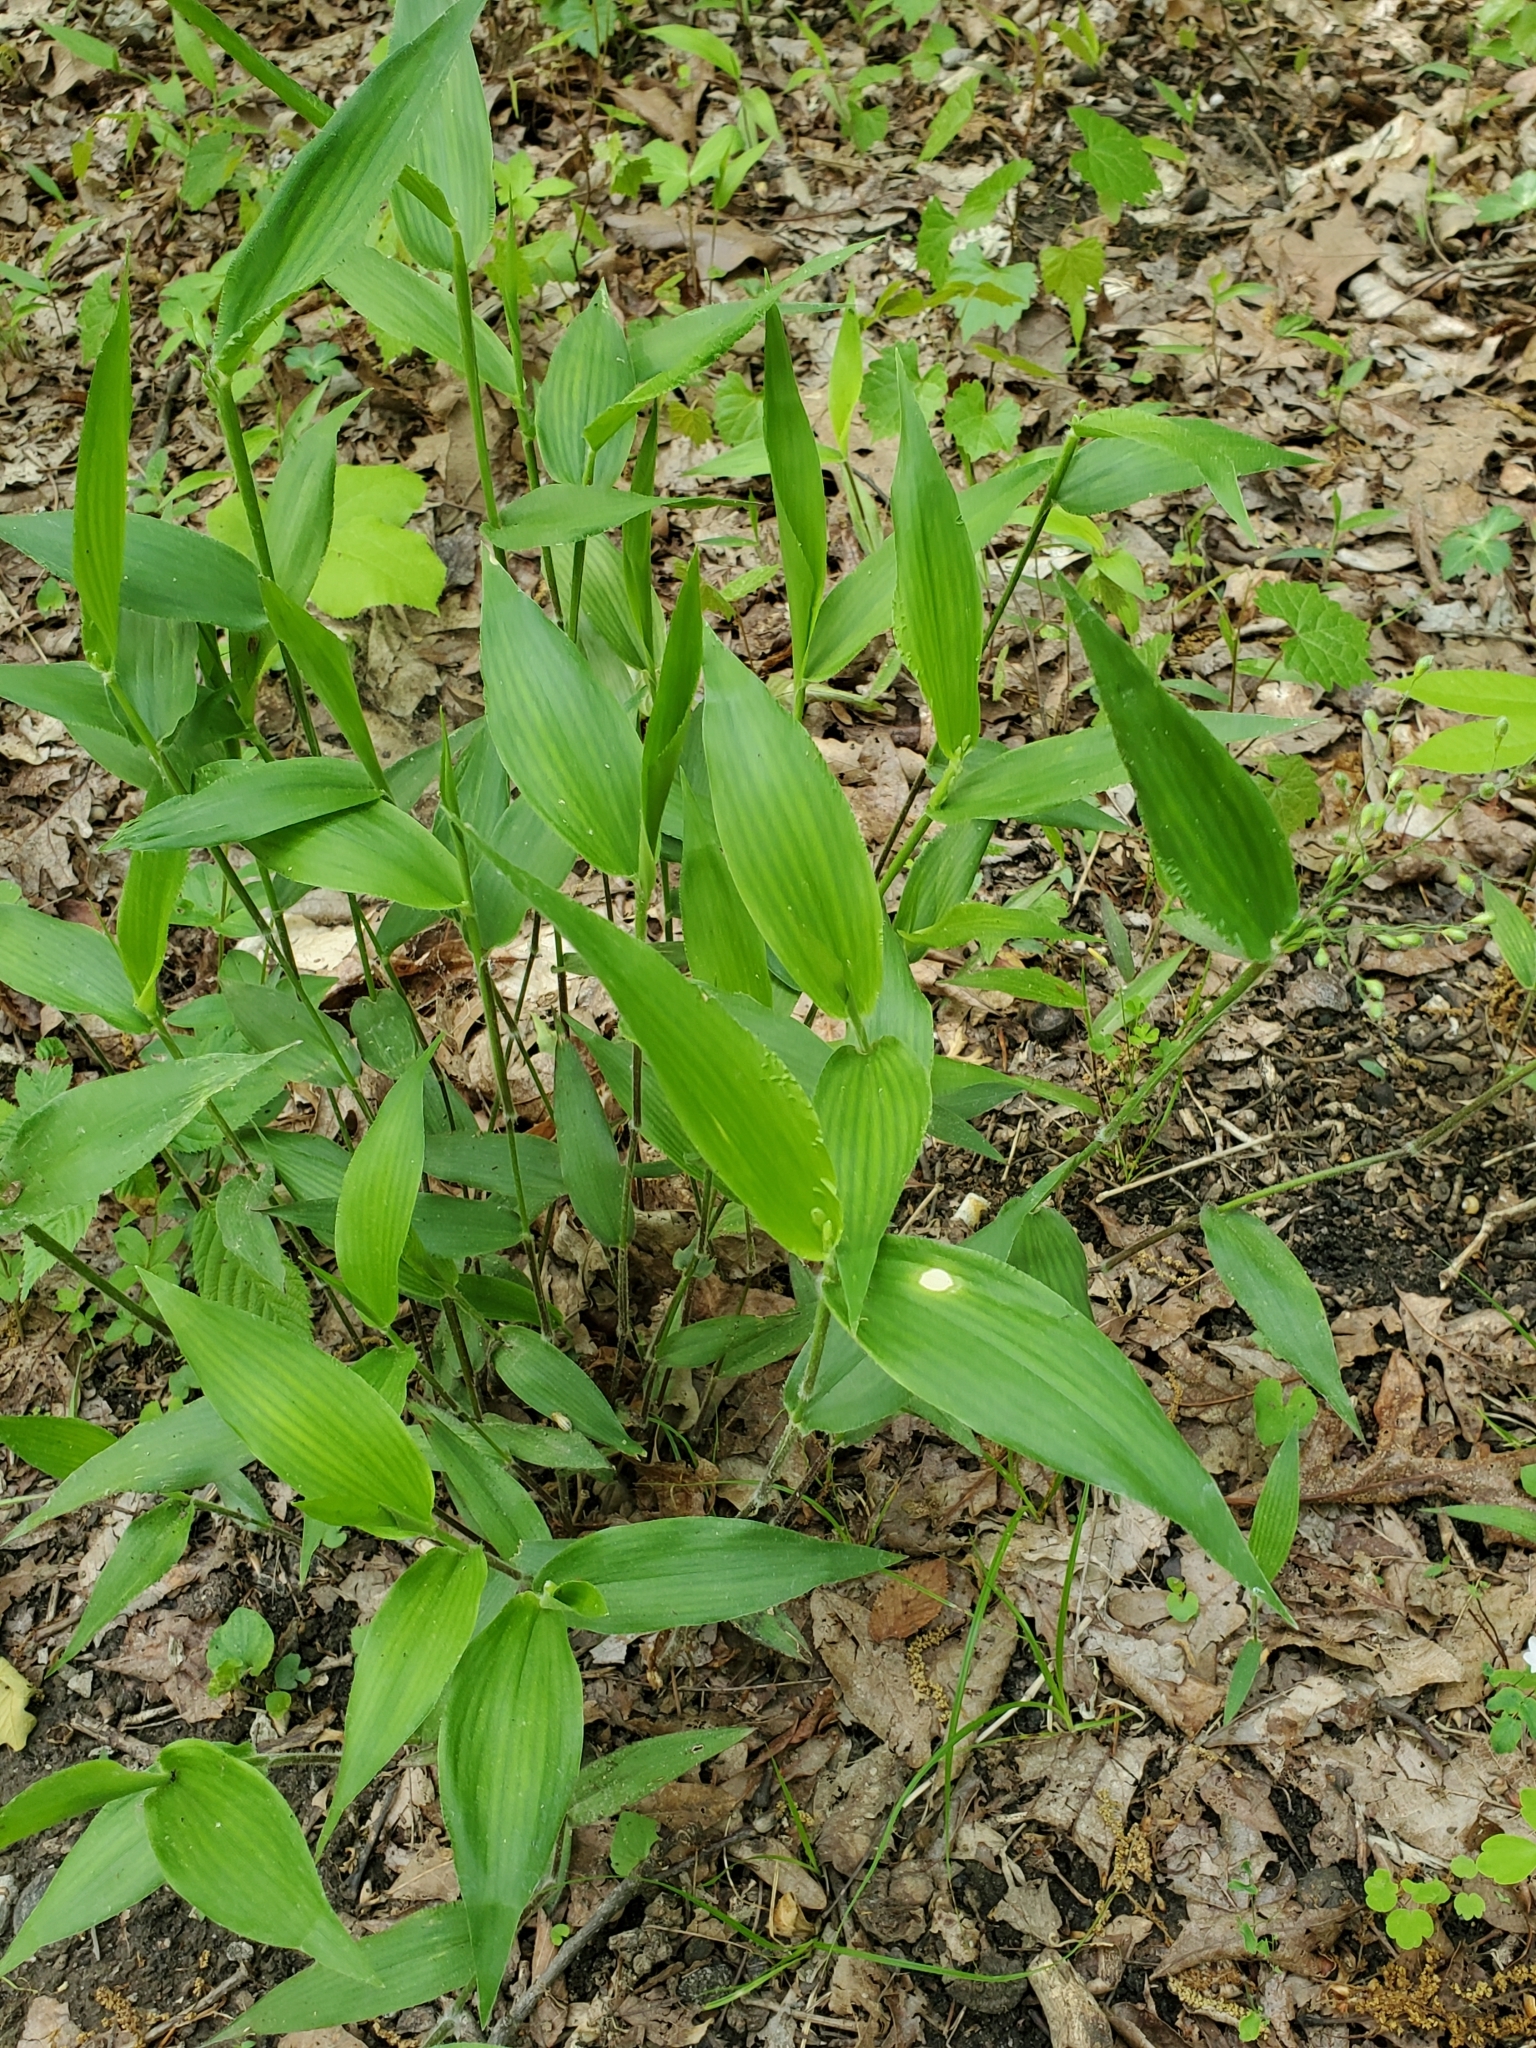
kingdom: Plantae
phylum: Tracheophyta
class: Liliopsida
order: Poales
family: Poaceae
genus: Dichanthelium
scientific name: Dichanthelium boscii
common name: Bosc's panic grass
